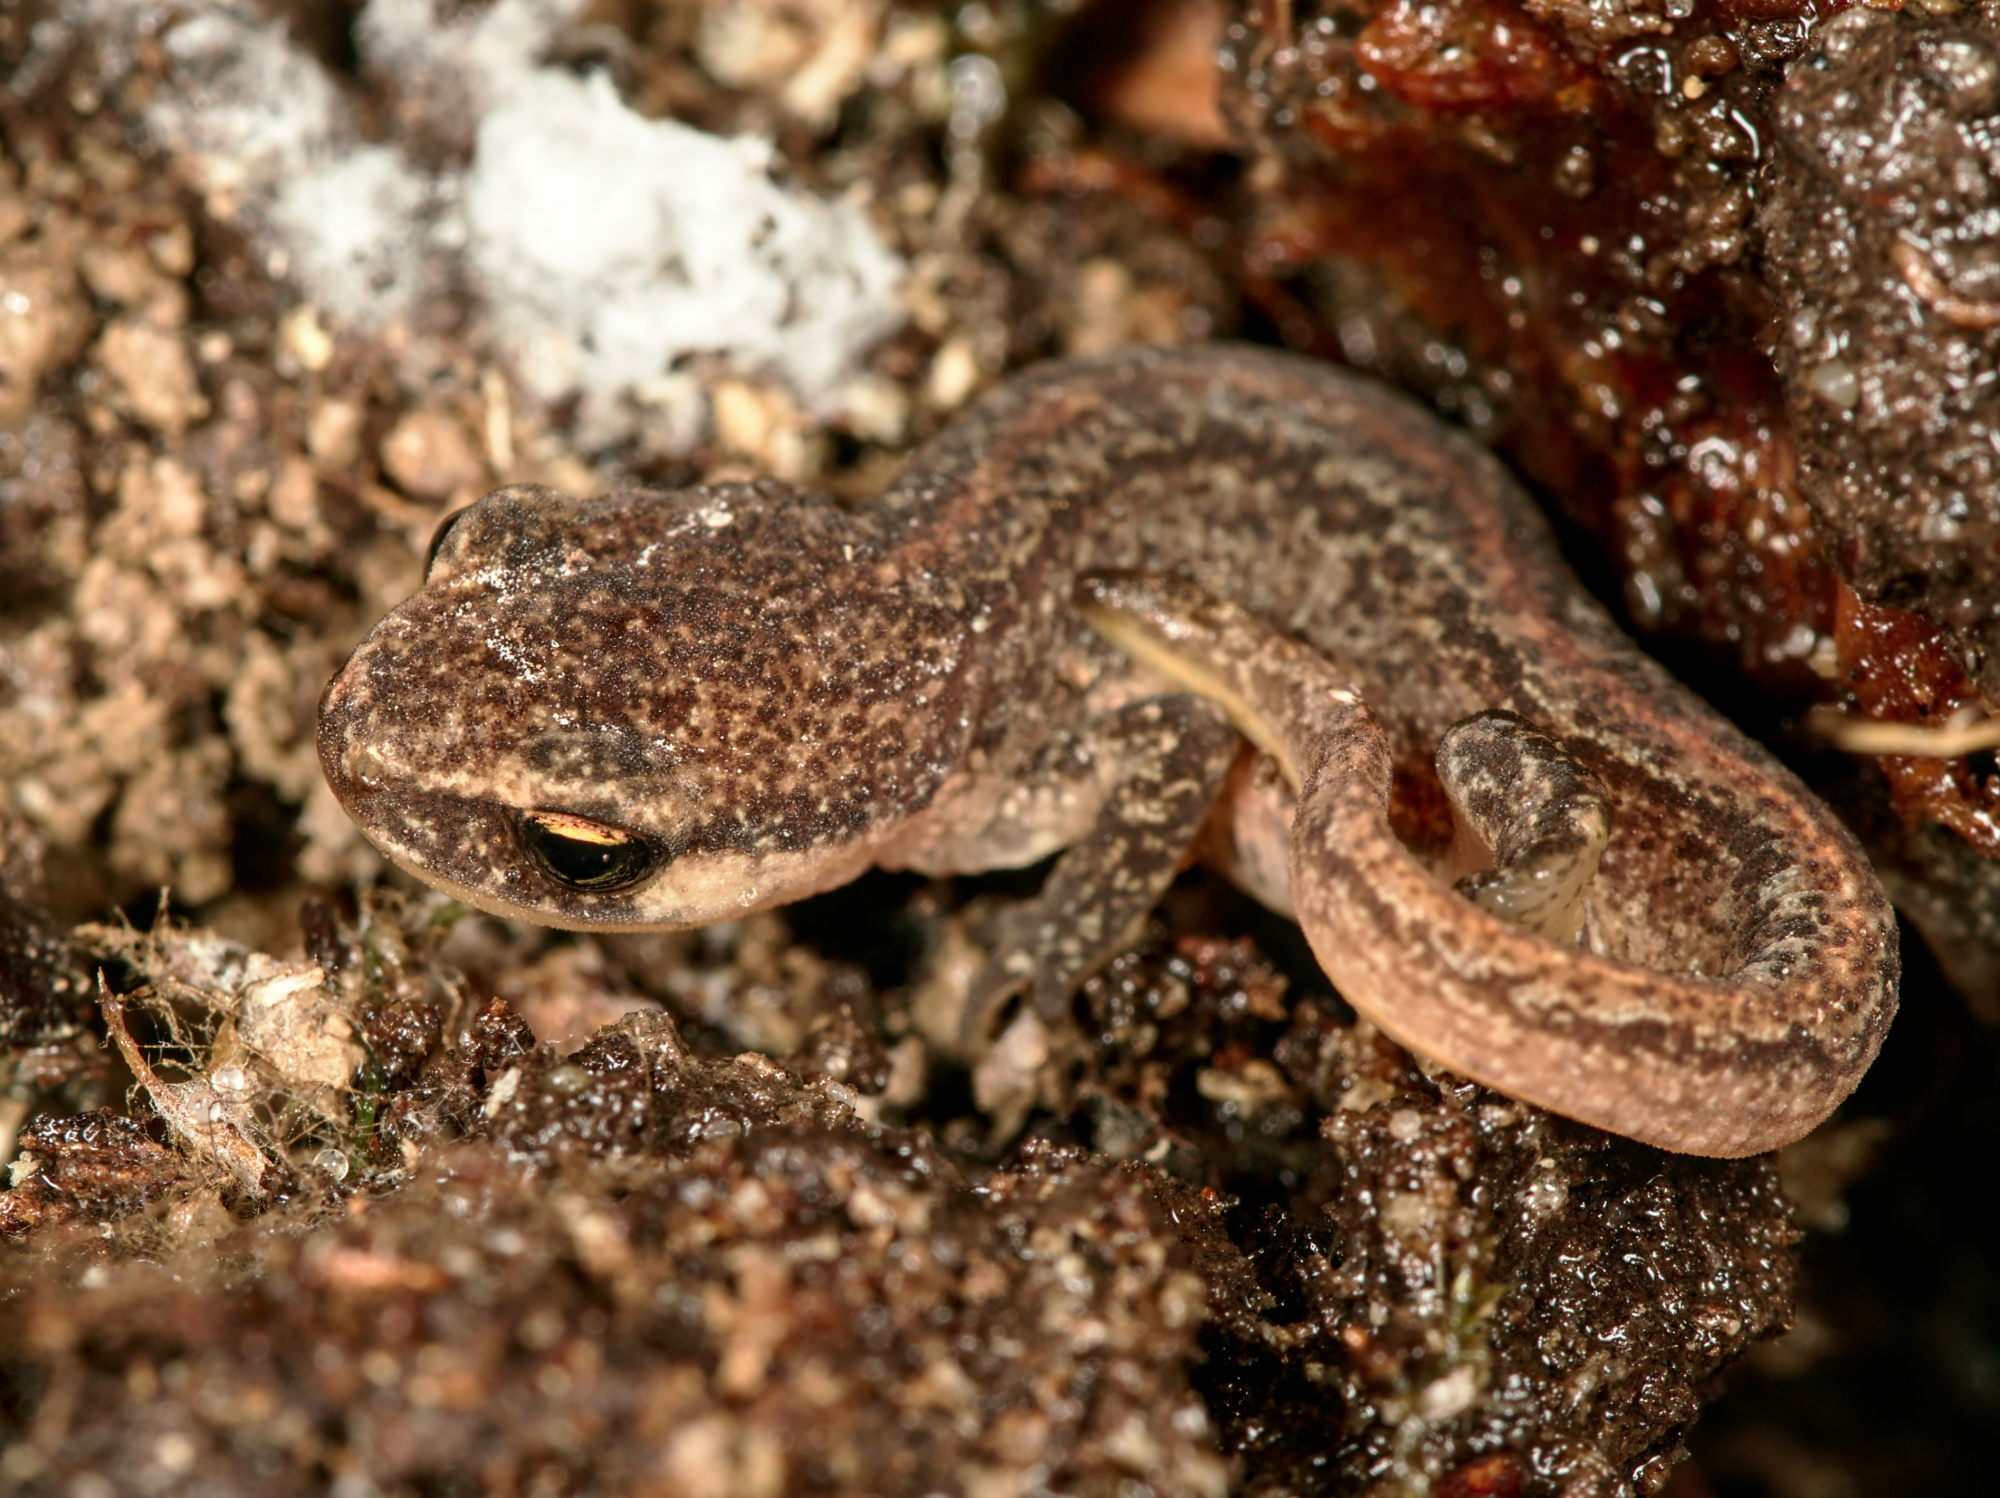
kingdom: Animalia
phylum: Chordata
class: Amphibia
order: Caudata
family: Salamandridae
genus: Lissotriton
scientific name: Lissotriton helveticus
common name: Palmate newt
